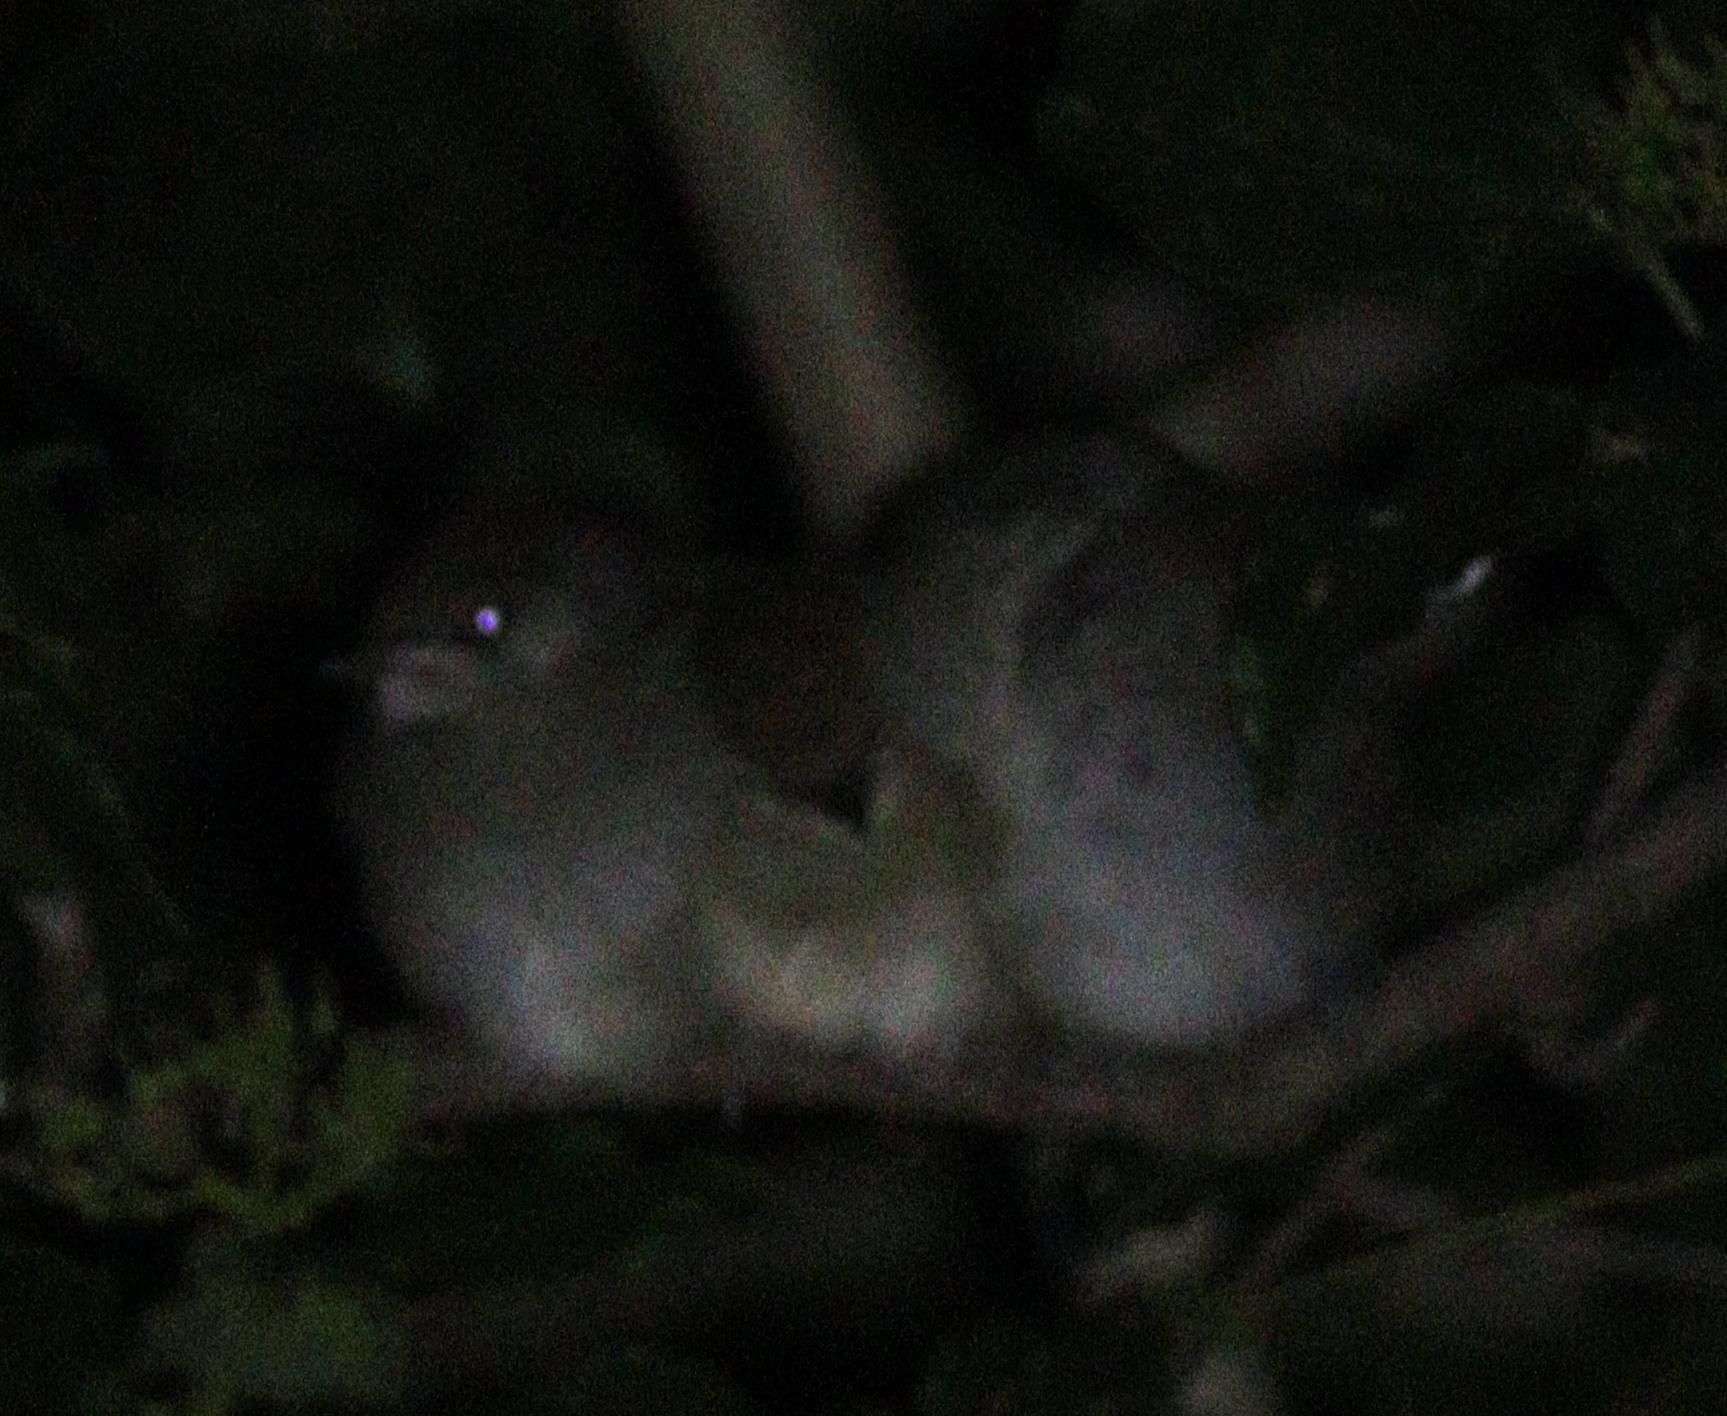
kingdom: Animalia
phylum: Chordata
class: Aves
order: Passeriformes
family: Sylviidae
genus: Sylvia
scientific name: Sylvia atricapilla
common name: Eurasian blackcap
